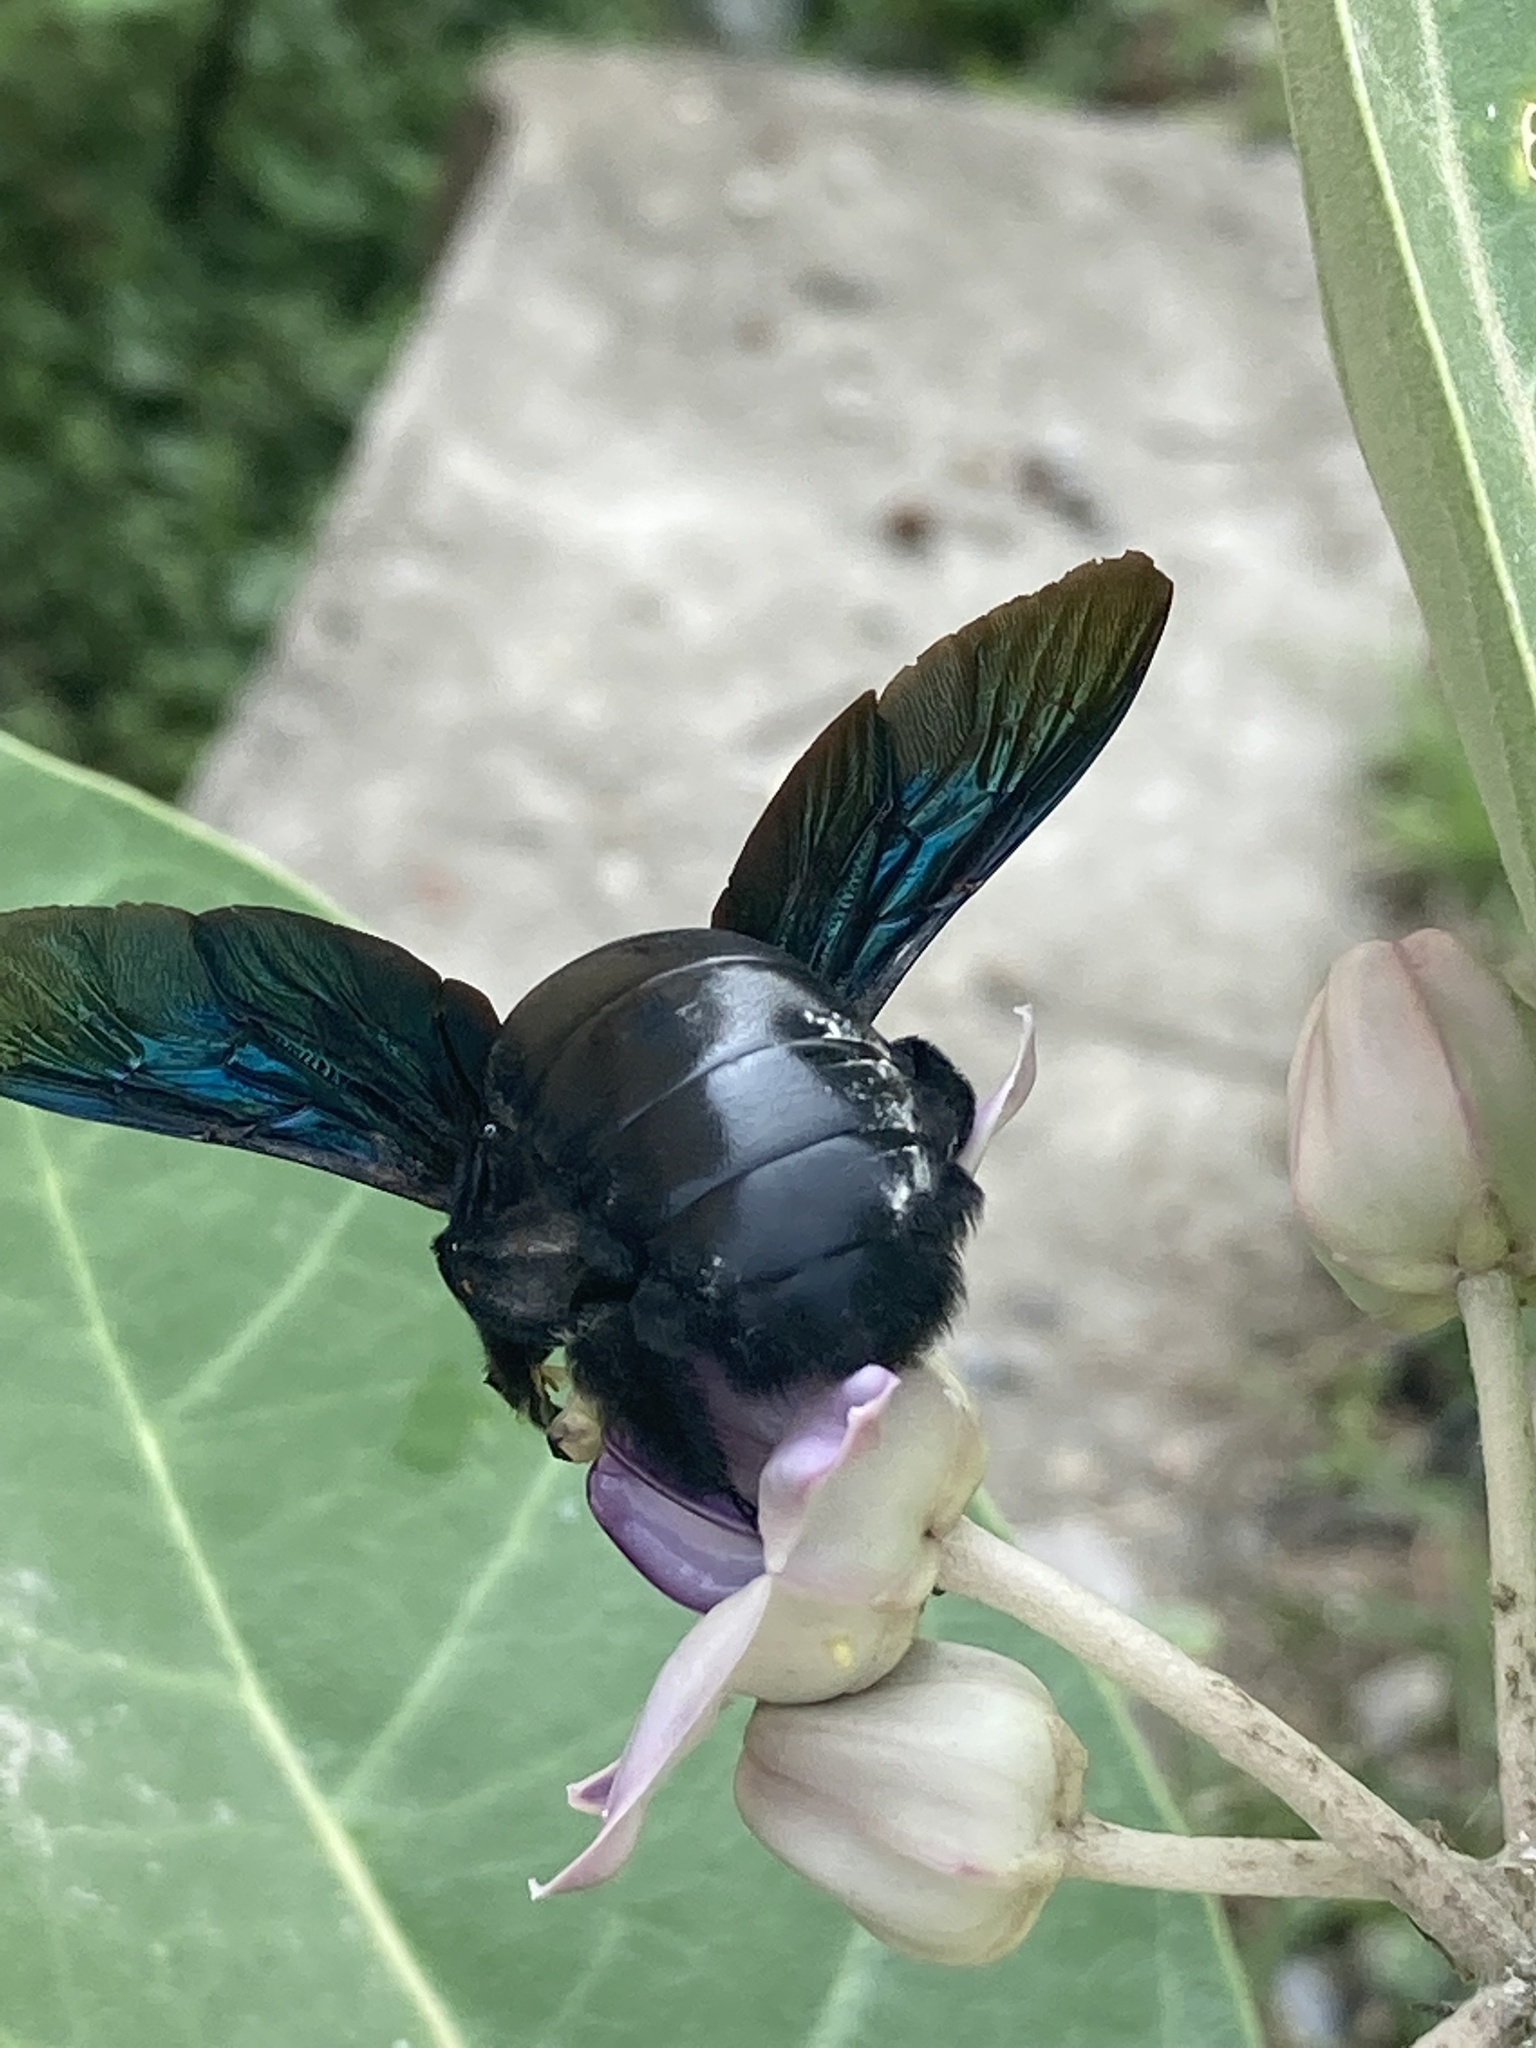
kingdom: Animalia
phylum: Arthropoda
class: Insecta
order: Hymenoptera
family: Apidae
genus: Xylocopa
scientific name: Xylocopa tenuiscapa
